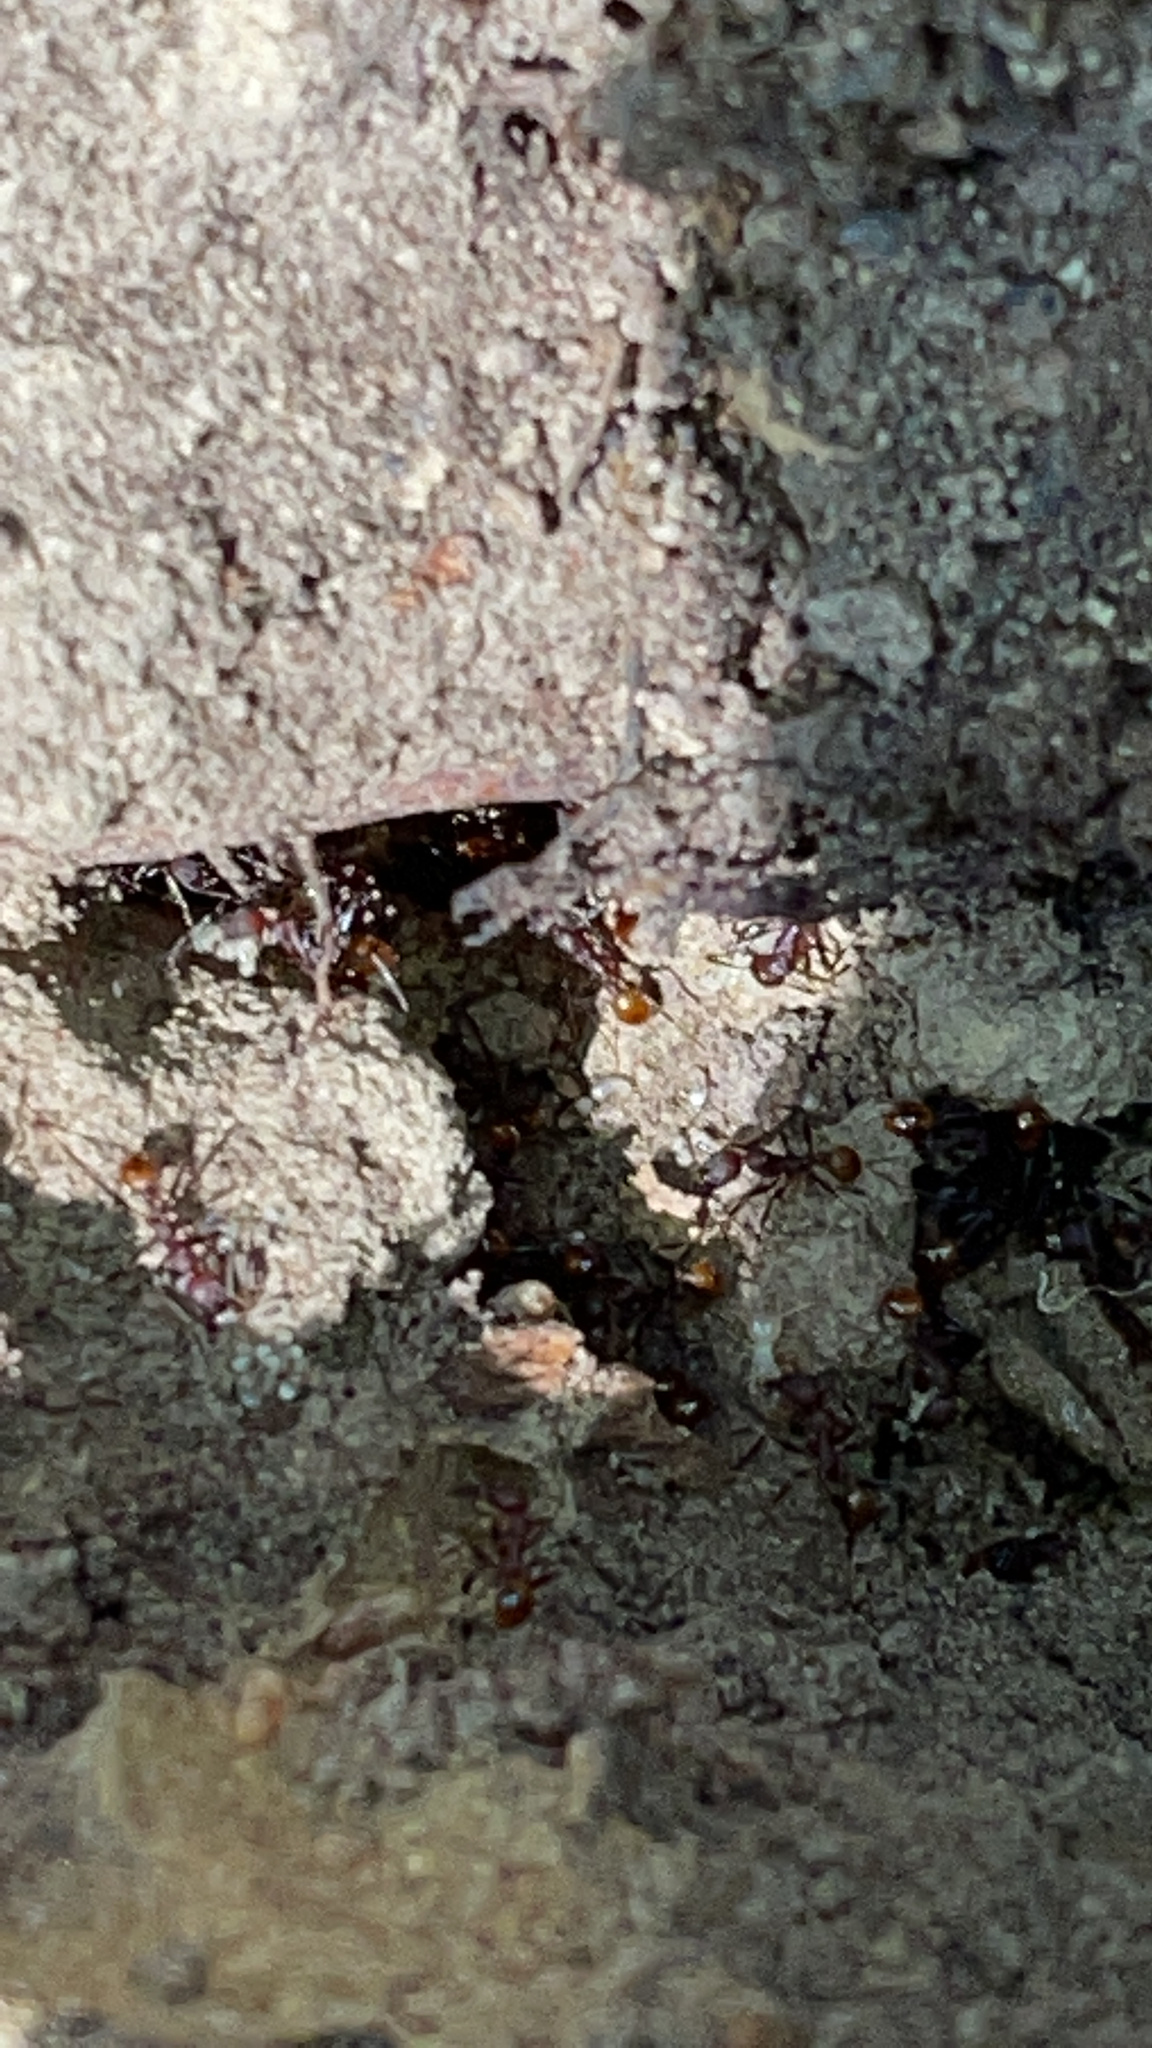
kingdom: Animalia
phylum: Arthropoda
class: Insecta
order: Hymenoptera
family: Formicidae
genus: Aphaenogaster
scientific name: Aphaenogaster lamellidens
